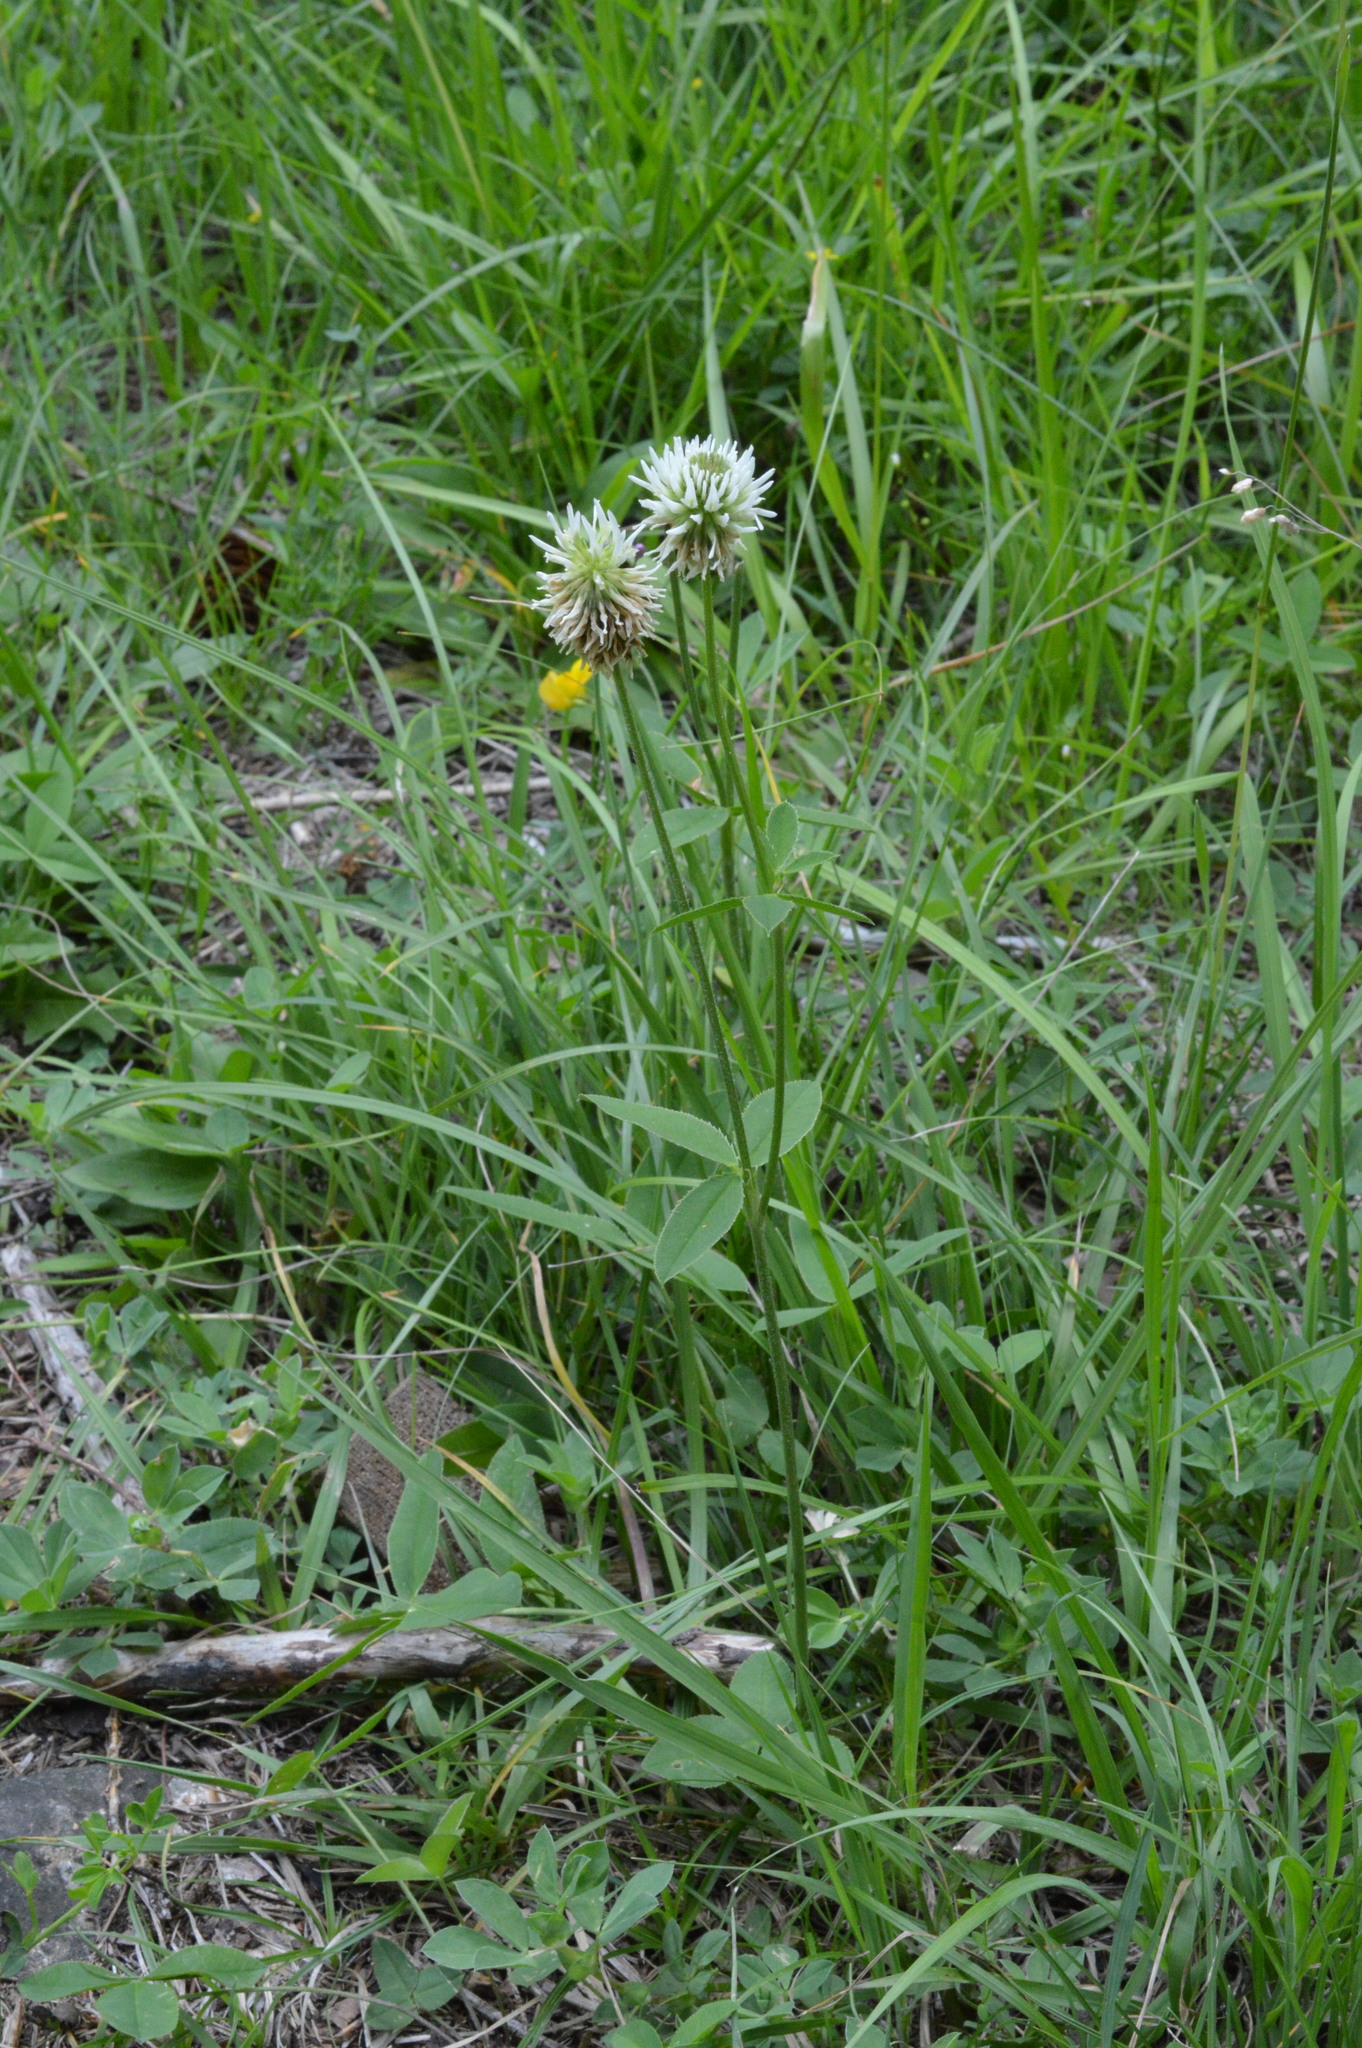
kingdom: Plantae
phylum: Tracheophyta
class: Magnoliopsida
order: Fabales
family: Fabaceae
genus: Trifolium
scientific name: Trifolium montanum
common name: Mountain clover
